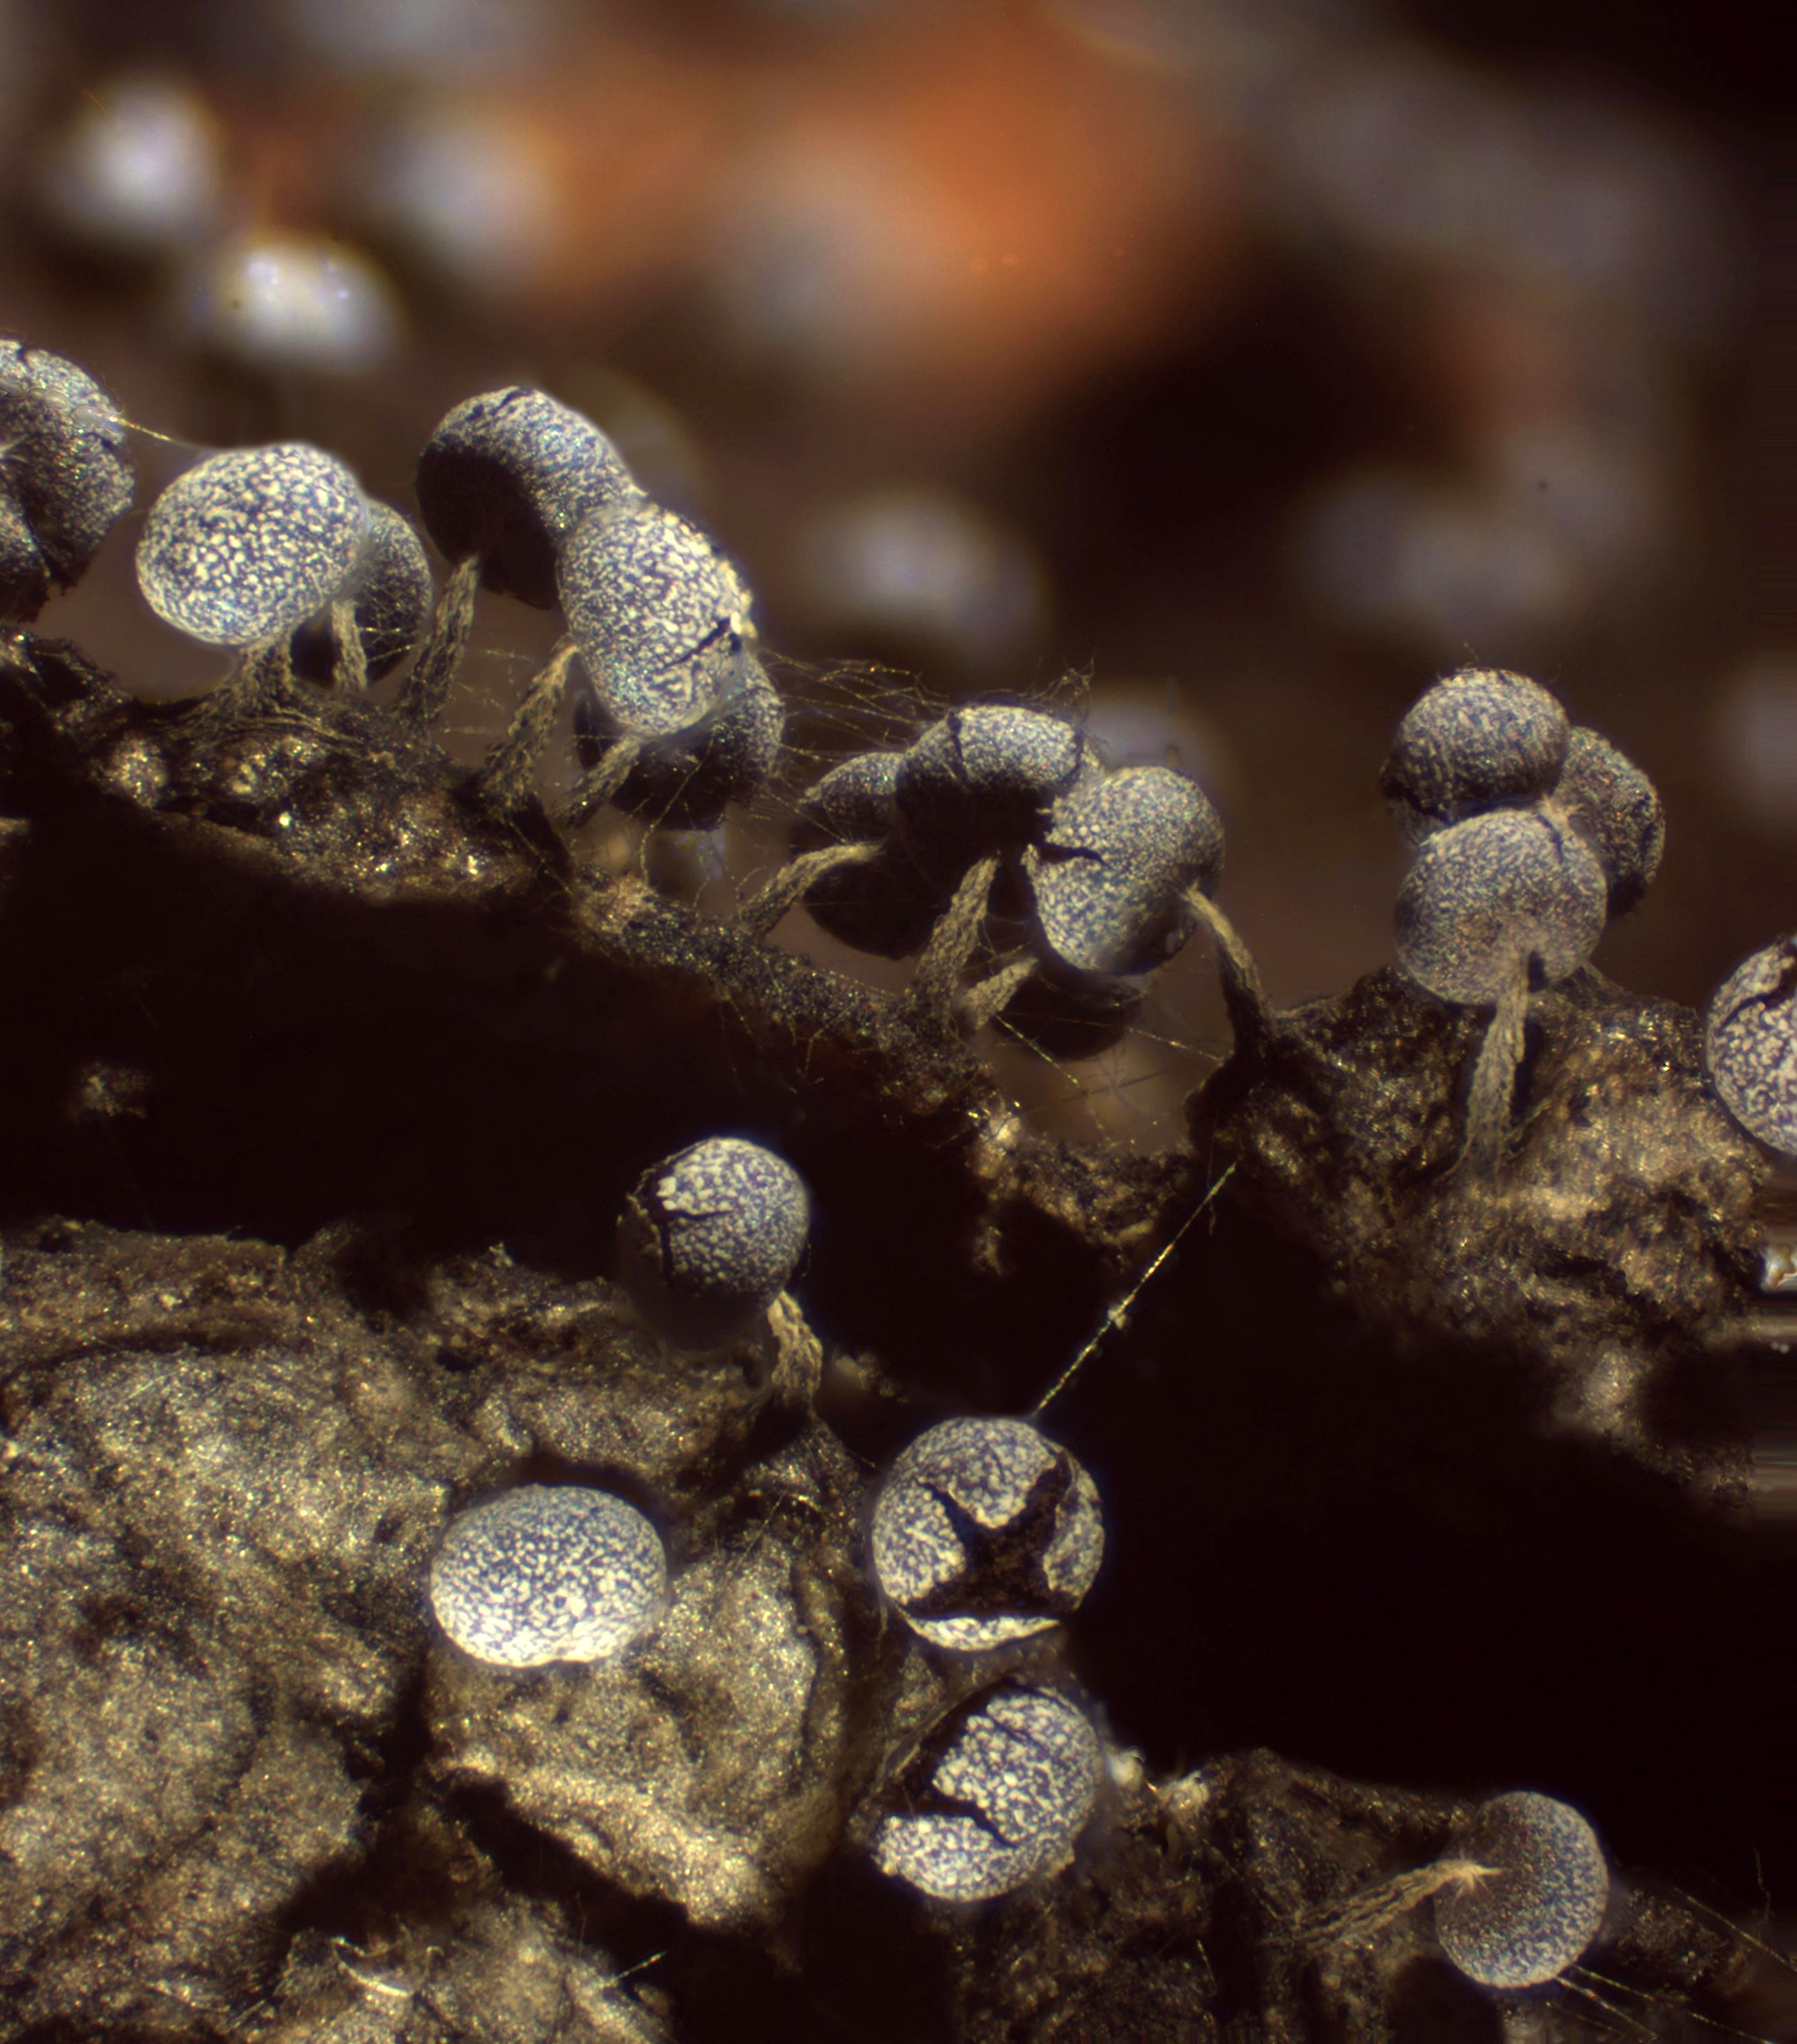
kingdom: Protozoa
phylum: Mycetozoa
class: Myxomycetes
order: Physarales
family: Physaraceae
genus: Physarum
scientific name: Physarum album
